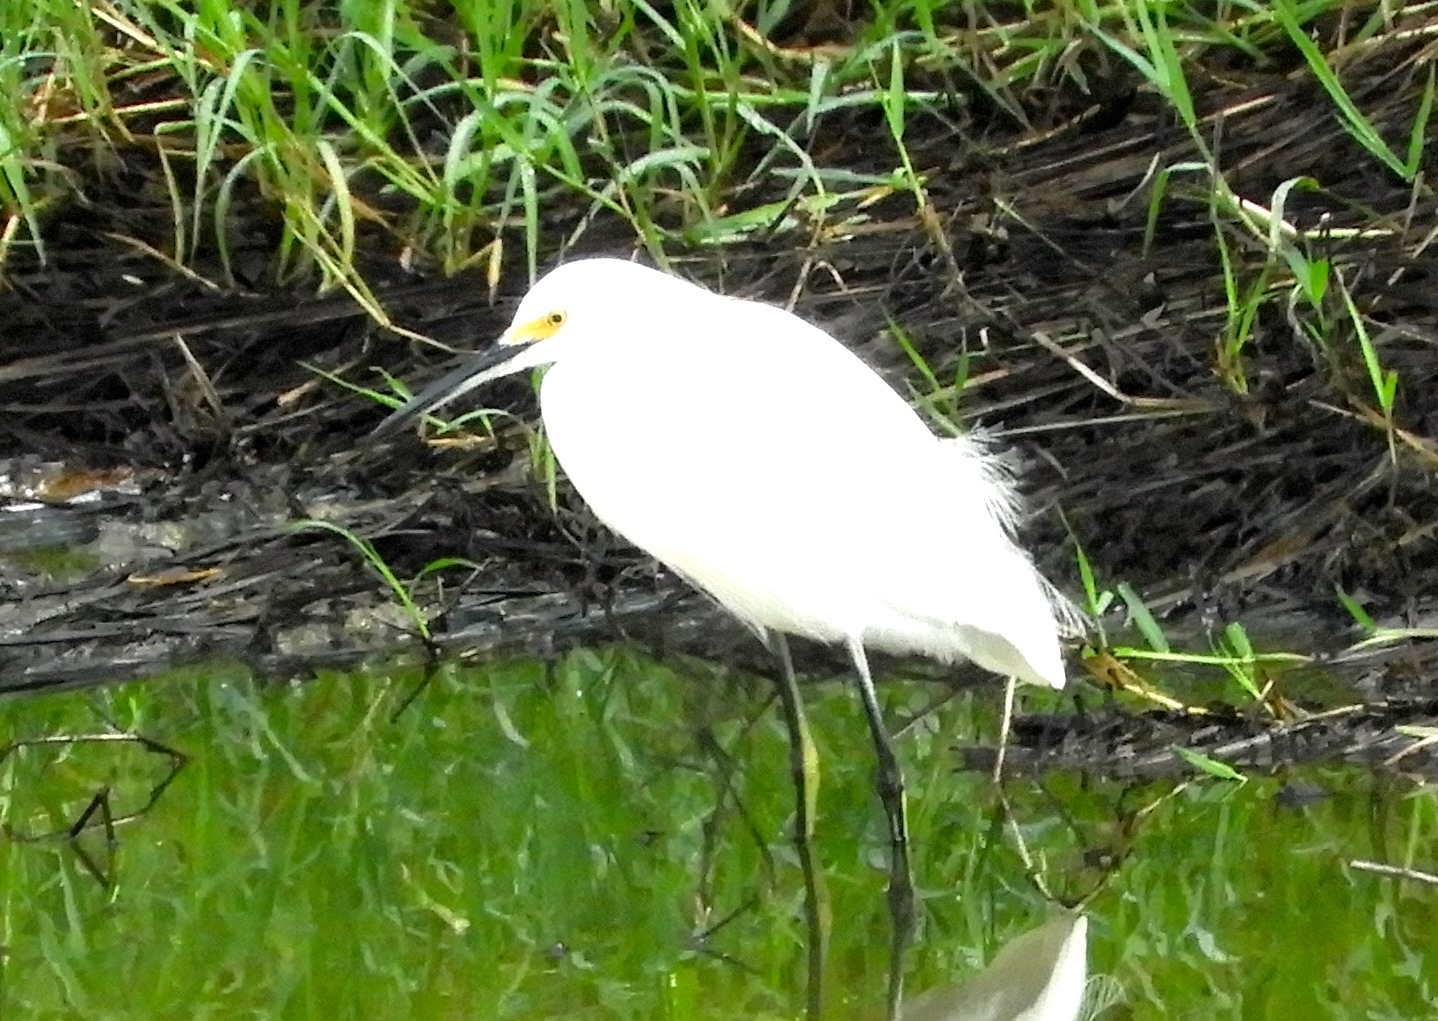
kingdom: Animalia
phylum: Chordata
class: Aves
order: Pelecaniformes
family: Ardeidae
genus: Egretta
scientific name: Egretta thula
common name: Snowy egret
